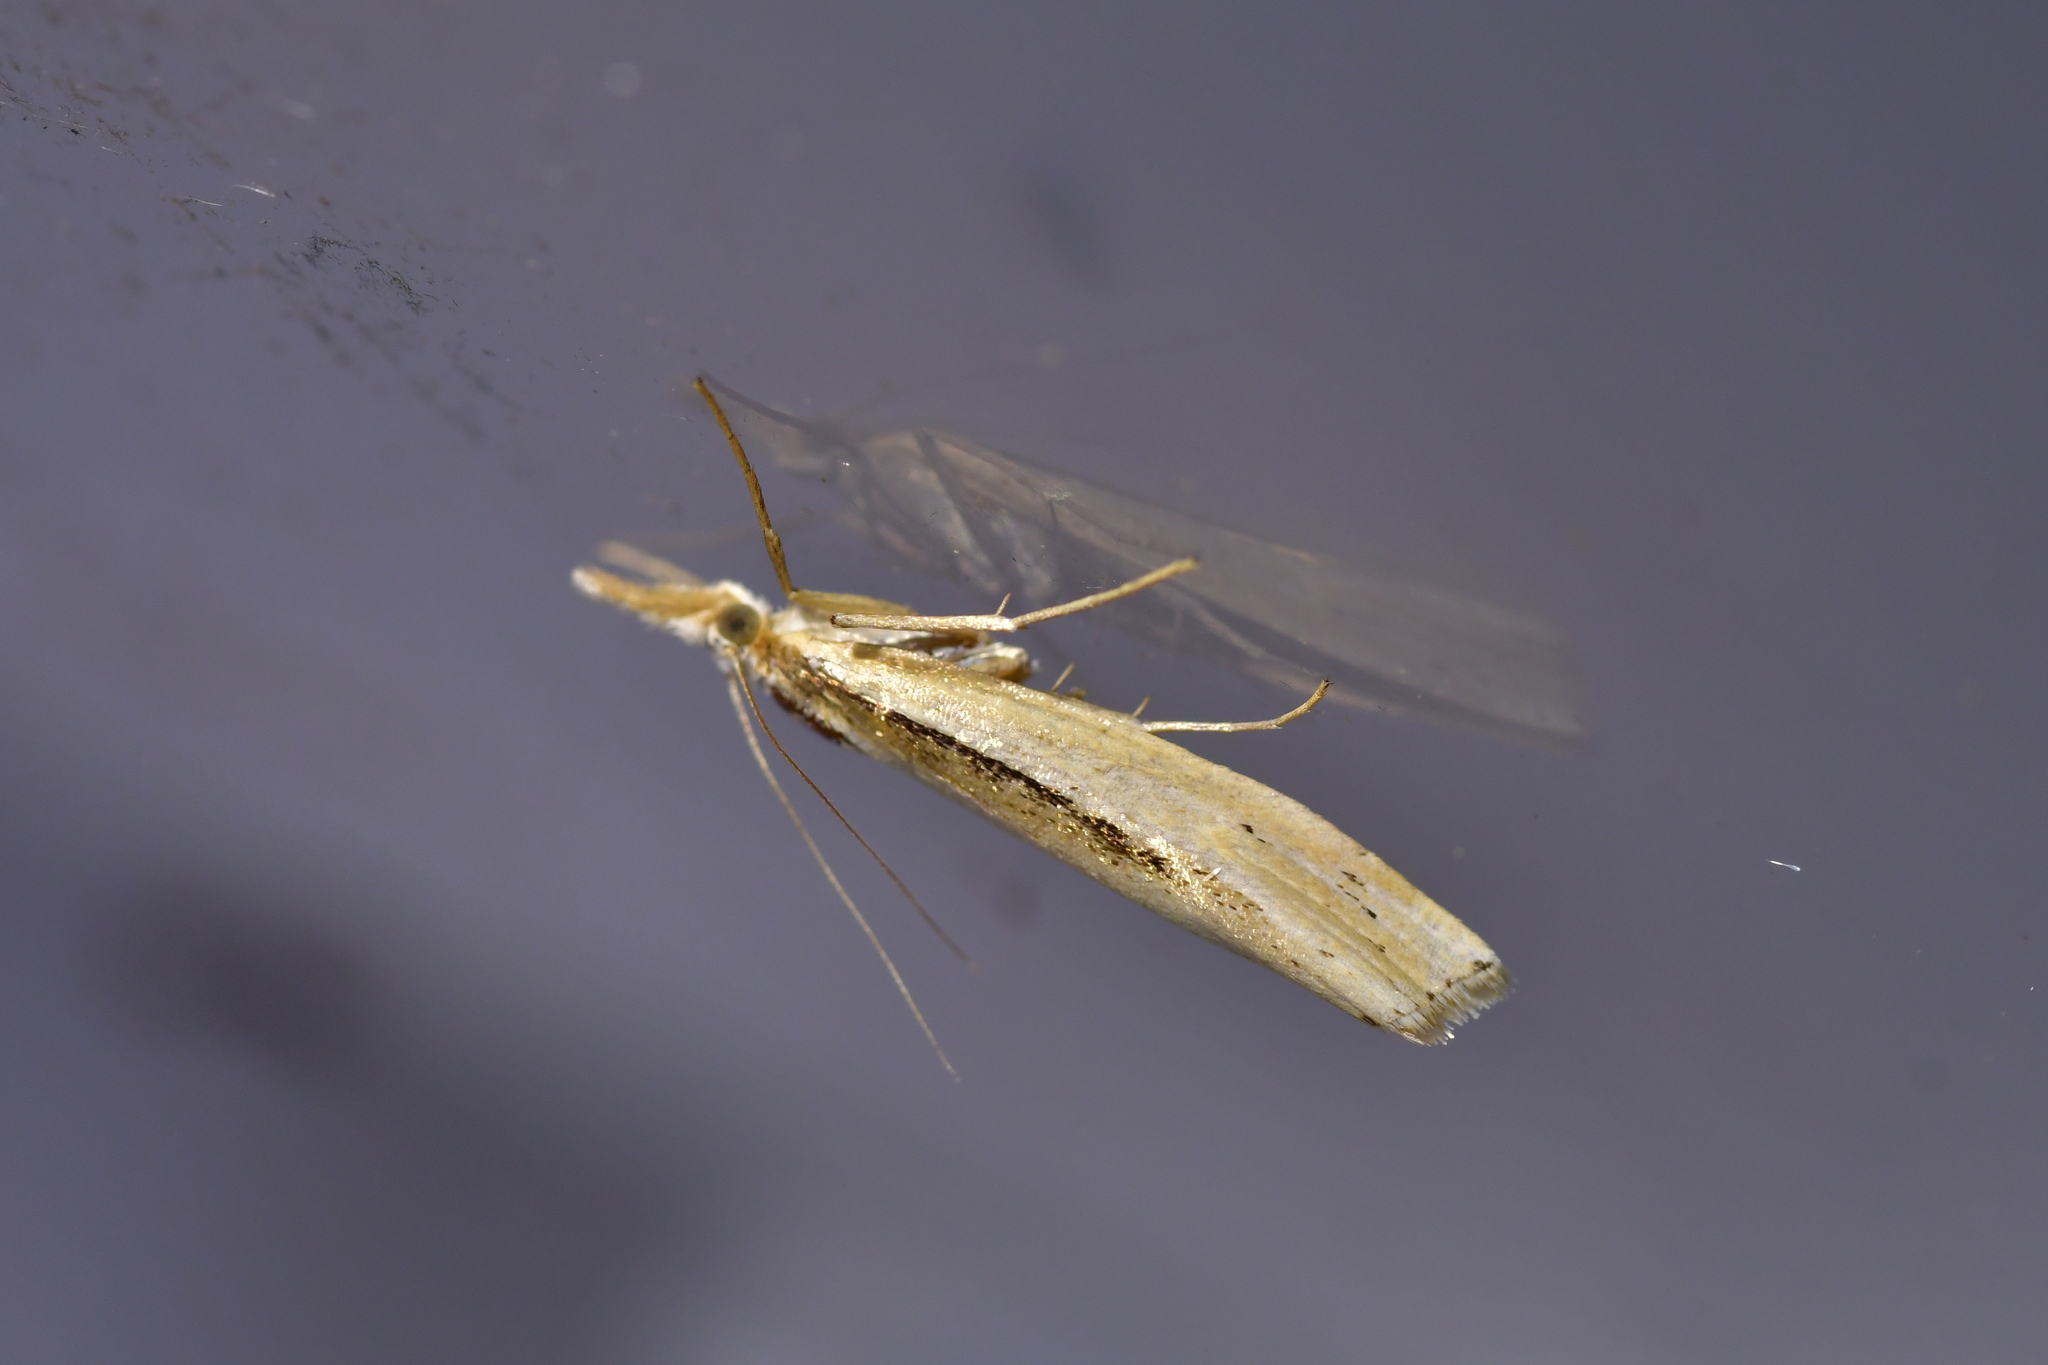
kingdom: Animalia
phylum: Arthropoda
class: Insecta
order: Lepidoptera
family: Crambidae
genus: Orocrambus
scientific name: Orocrambus ramosellus
